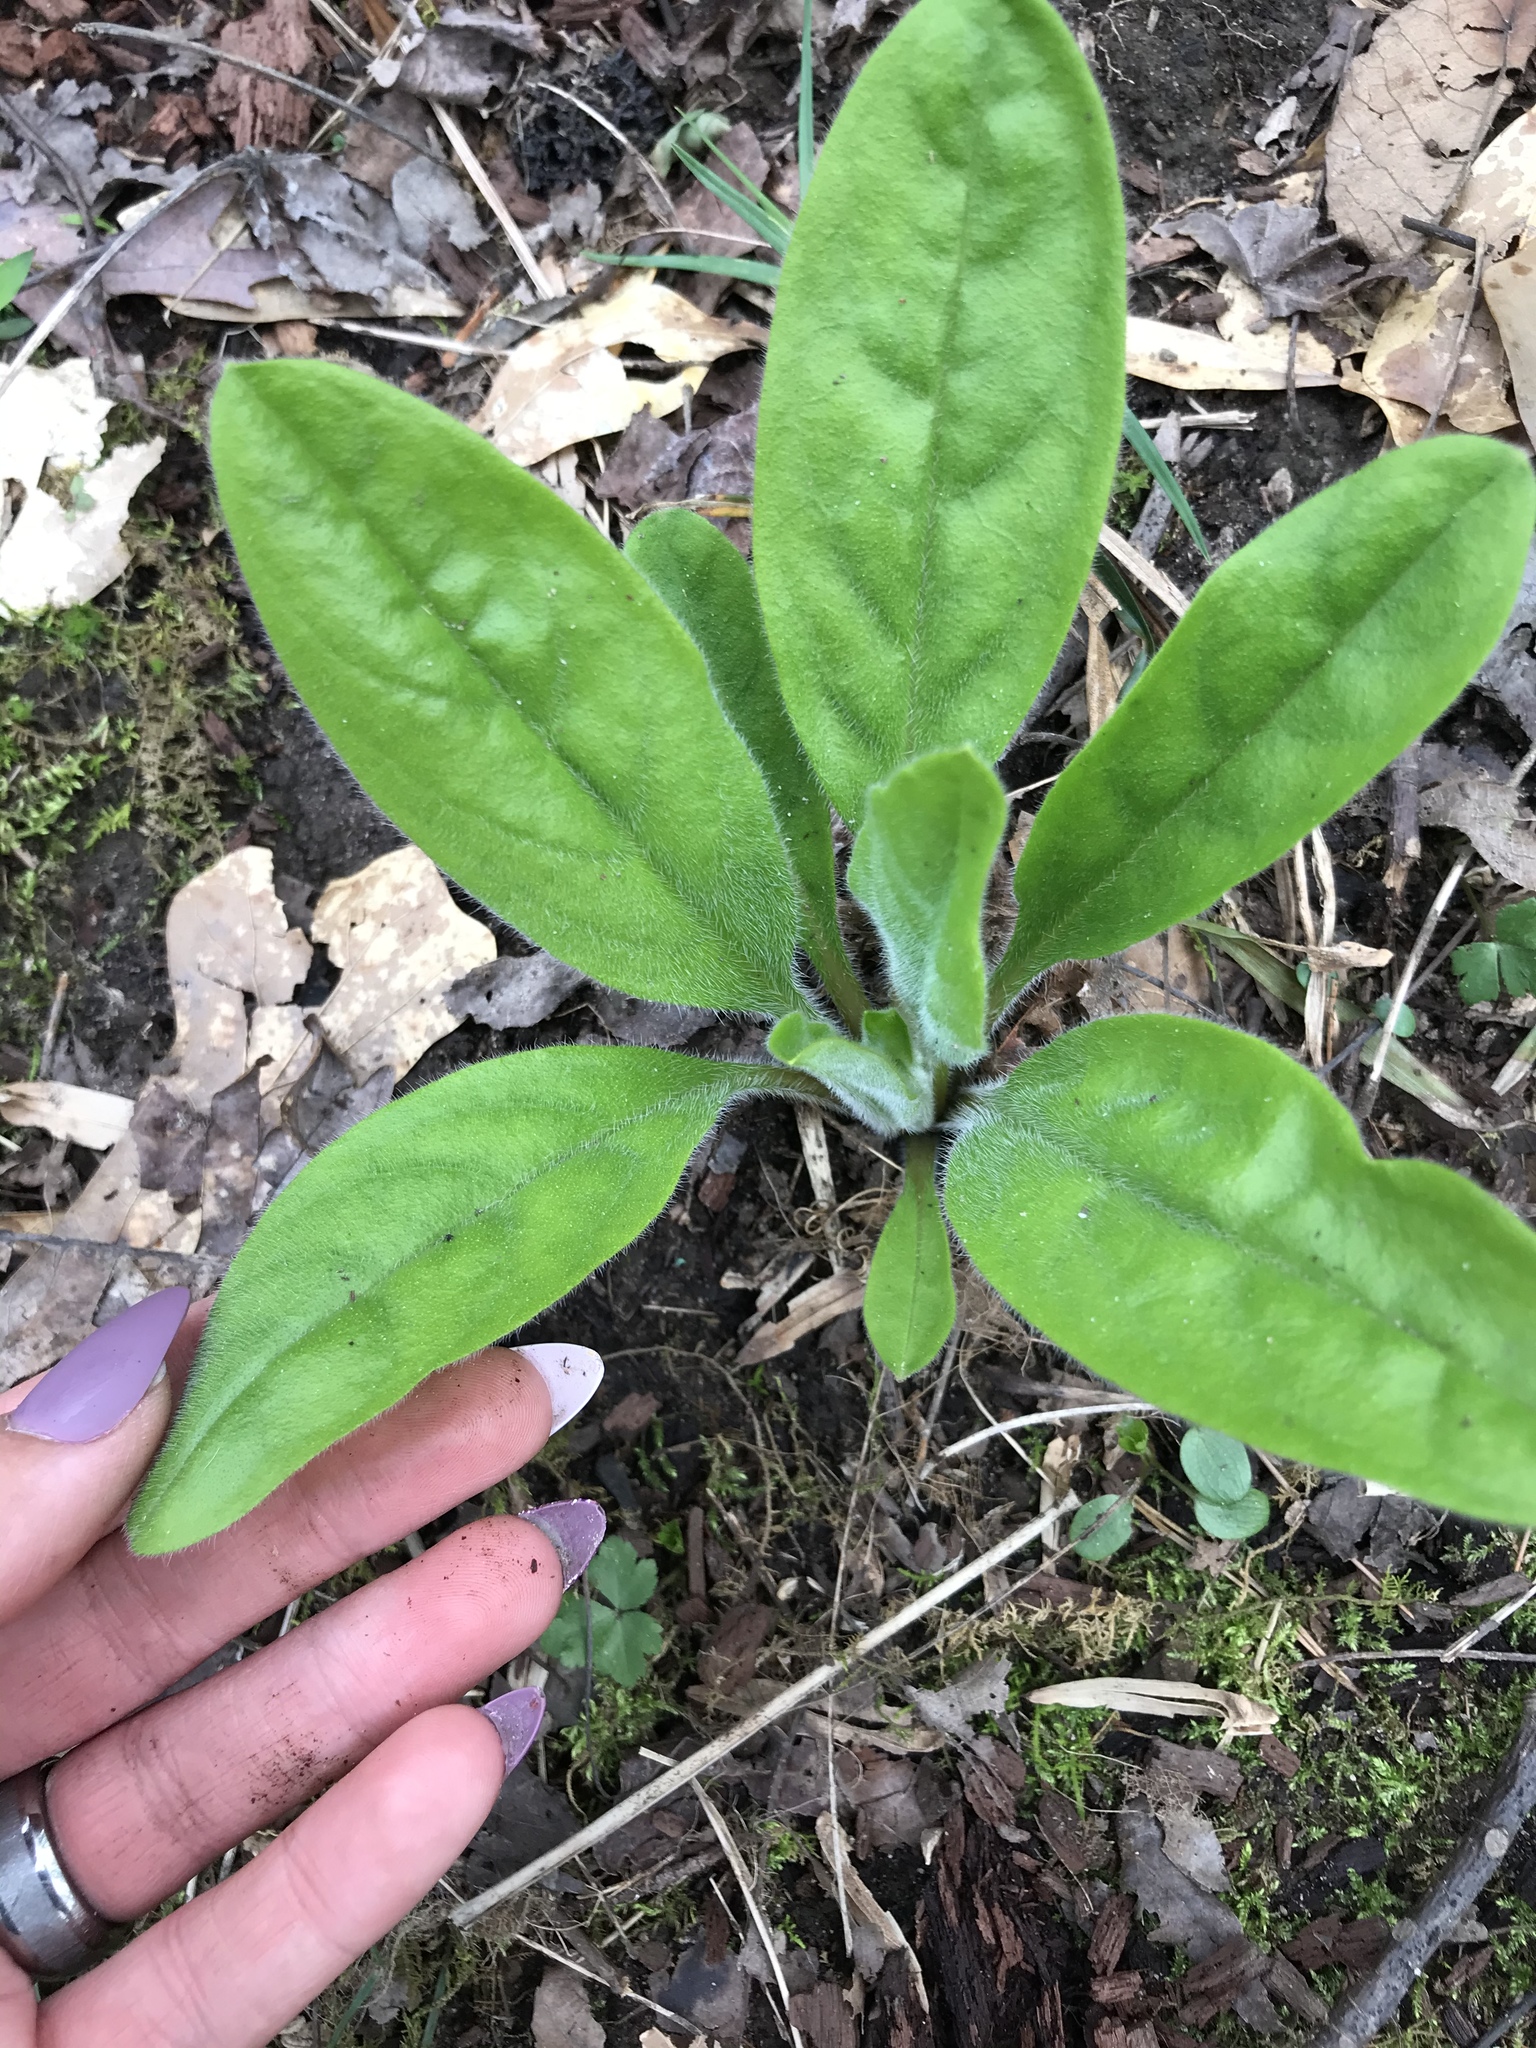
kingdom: Plantae
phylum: Tracheophyta
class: Magnoliopsida
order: Boraginales
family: Boraginaceae
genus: Andersonglossum
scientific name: Andersonglossum virginianum
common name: Wild comfrey
